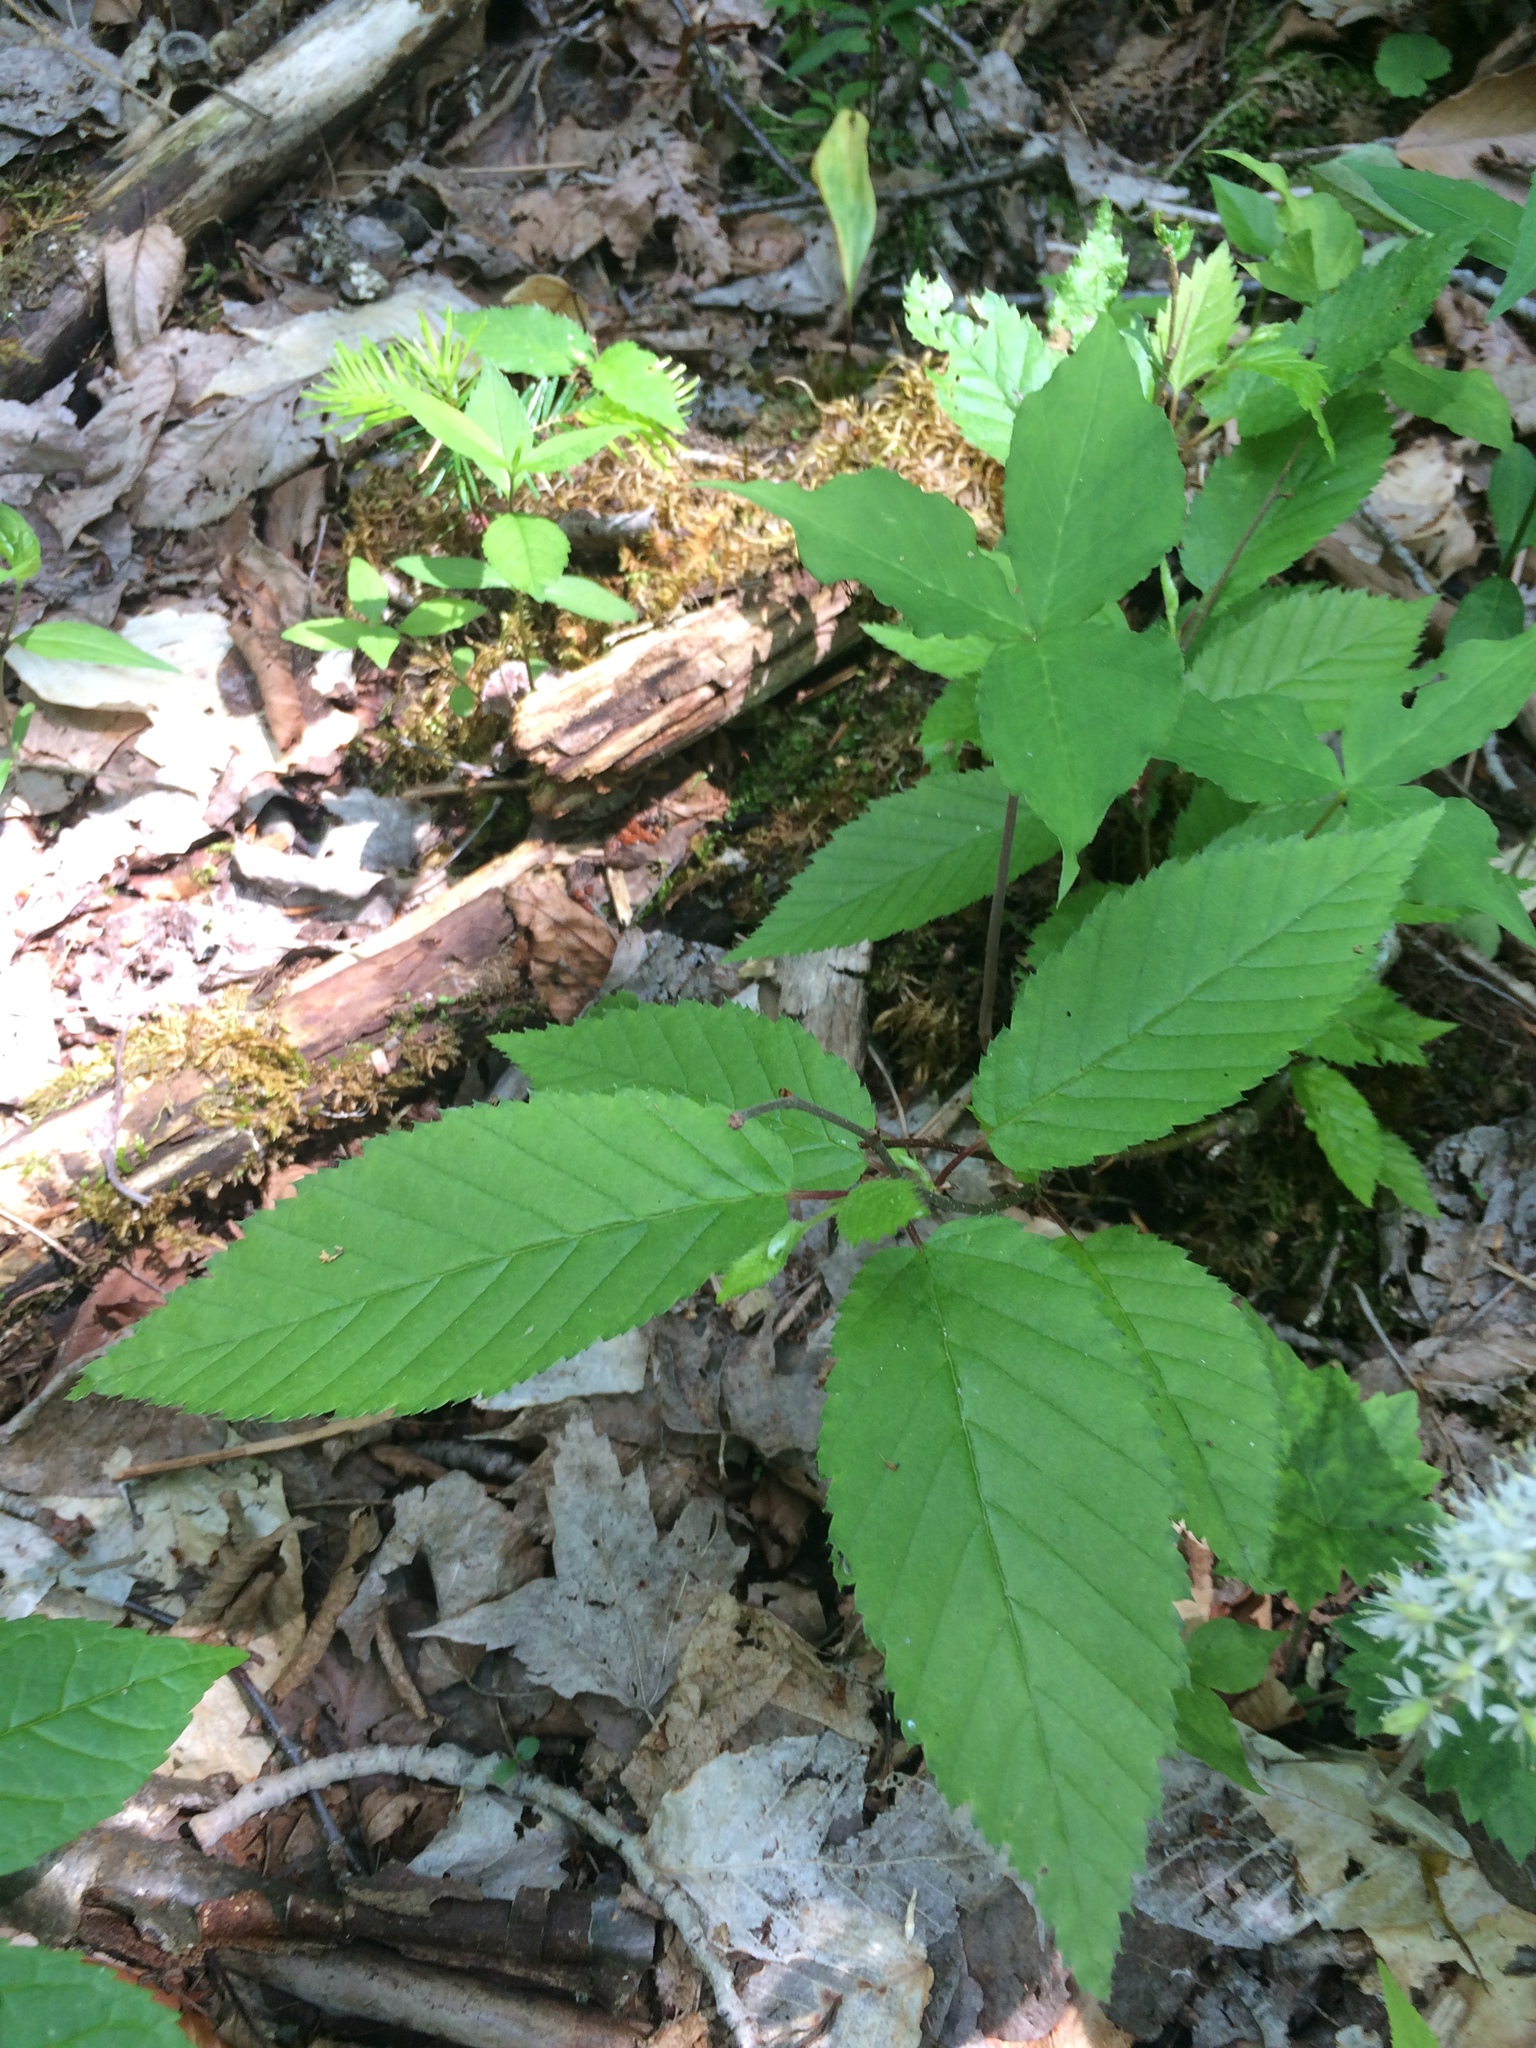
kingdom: Plantae
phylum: Tracheophyta
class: Magnoliopsida
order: Fagales
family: Betulaceae
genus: Betula
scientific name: Betula alleghaniensis
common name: Yellow birch
